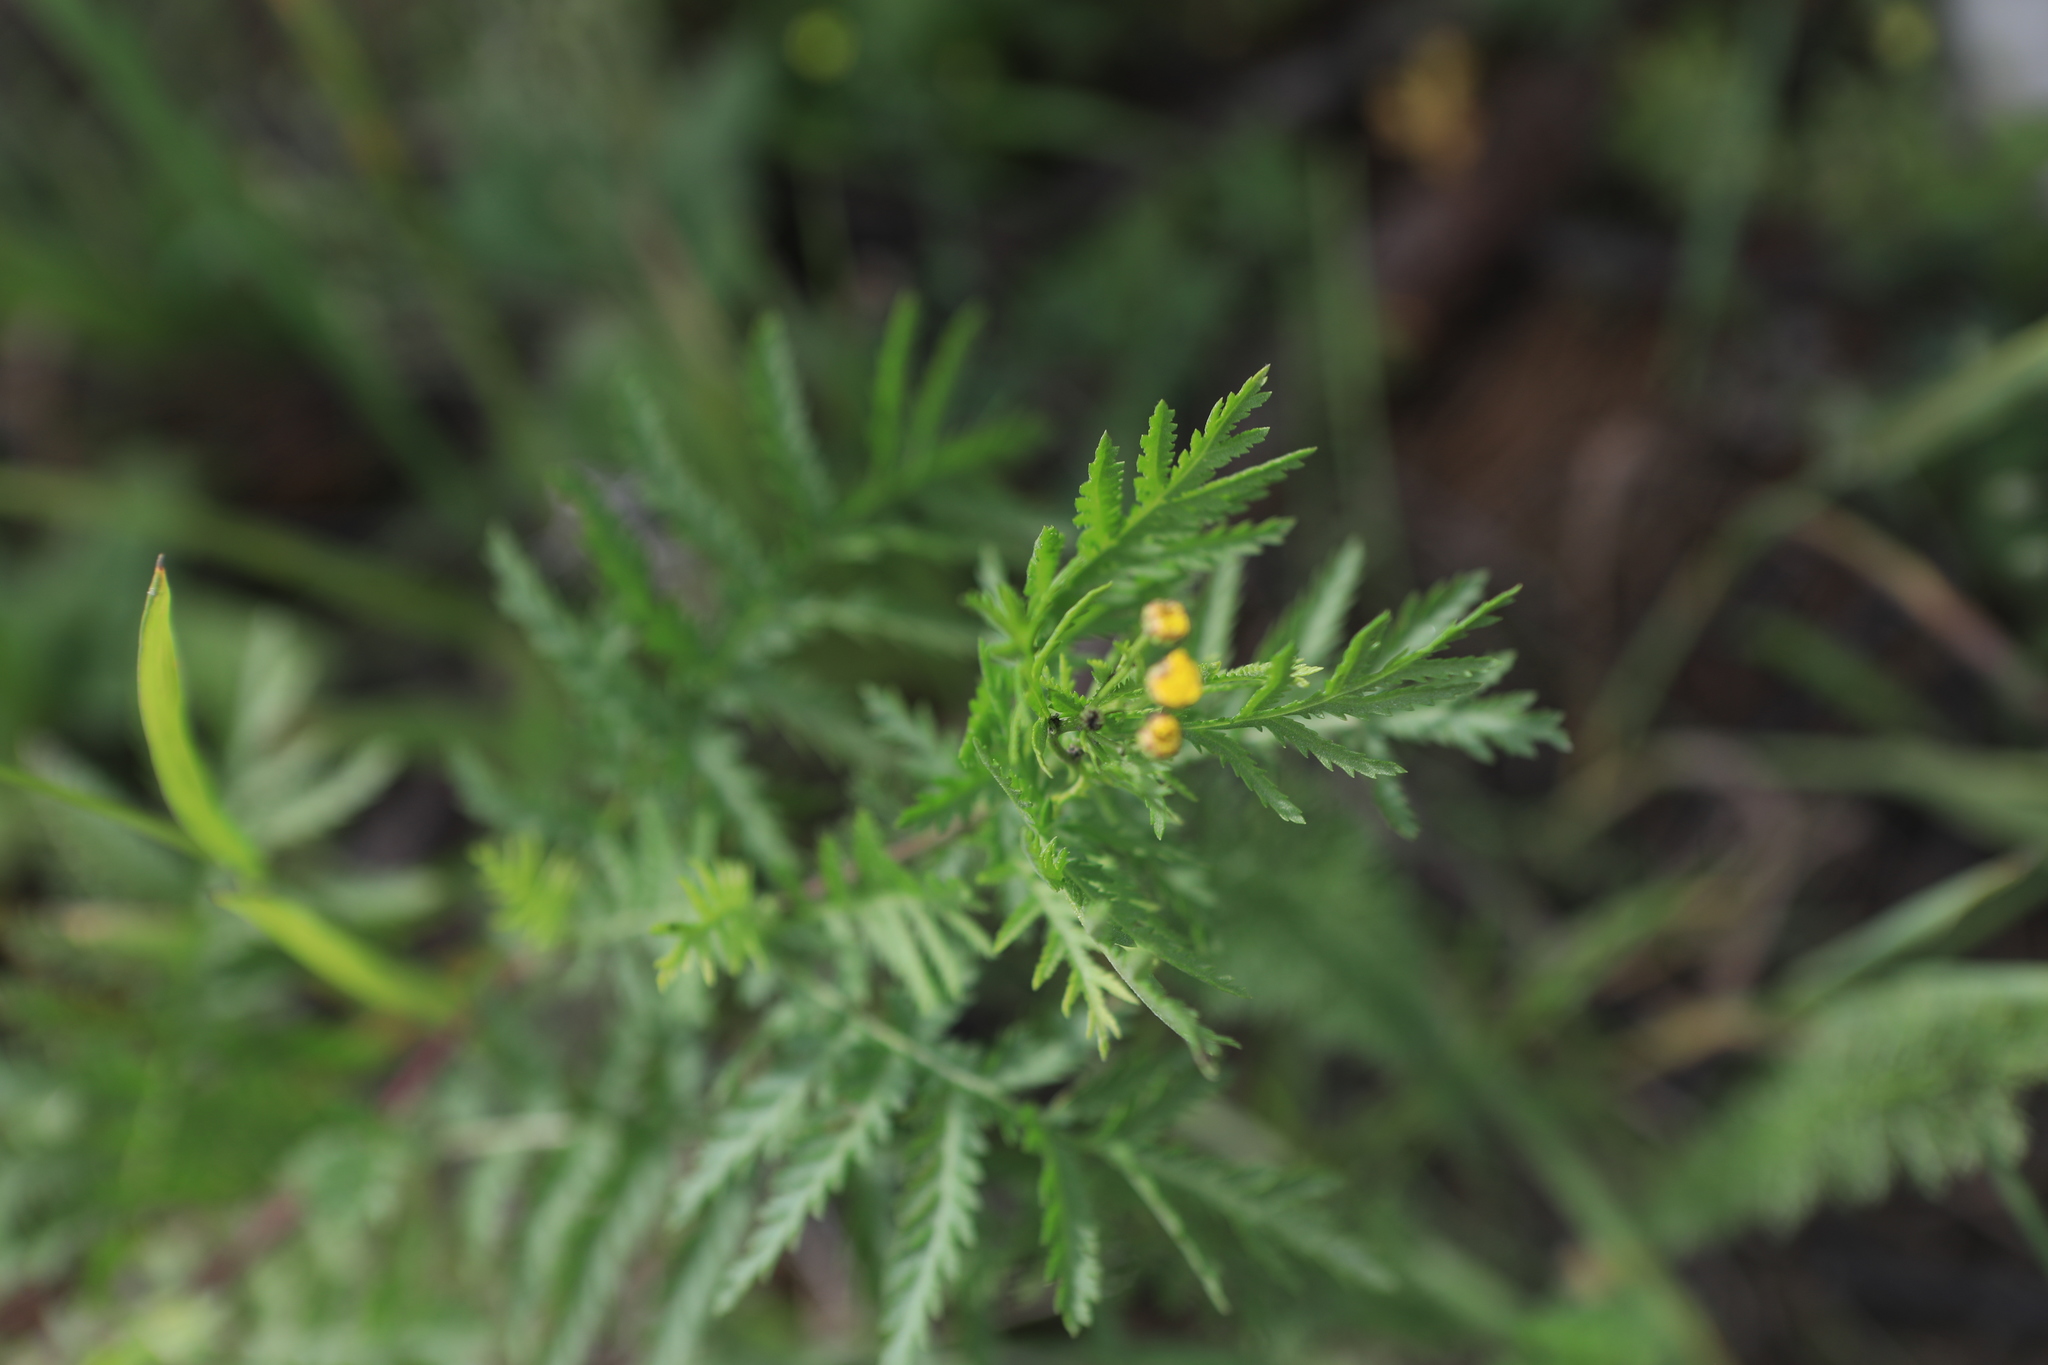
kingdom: Plantae
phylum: Tracheophyta
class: Magnoliopsida
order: Asterales
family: Asteraceae
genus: Tanacetum
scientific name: Tanacetum vulgare
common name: Common tansy
